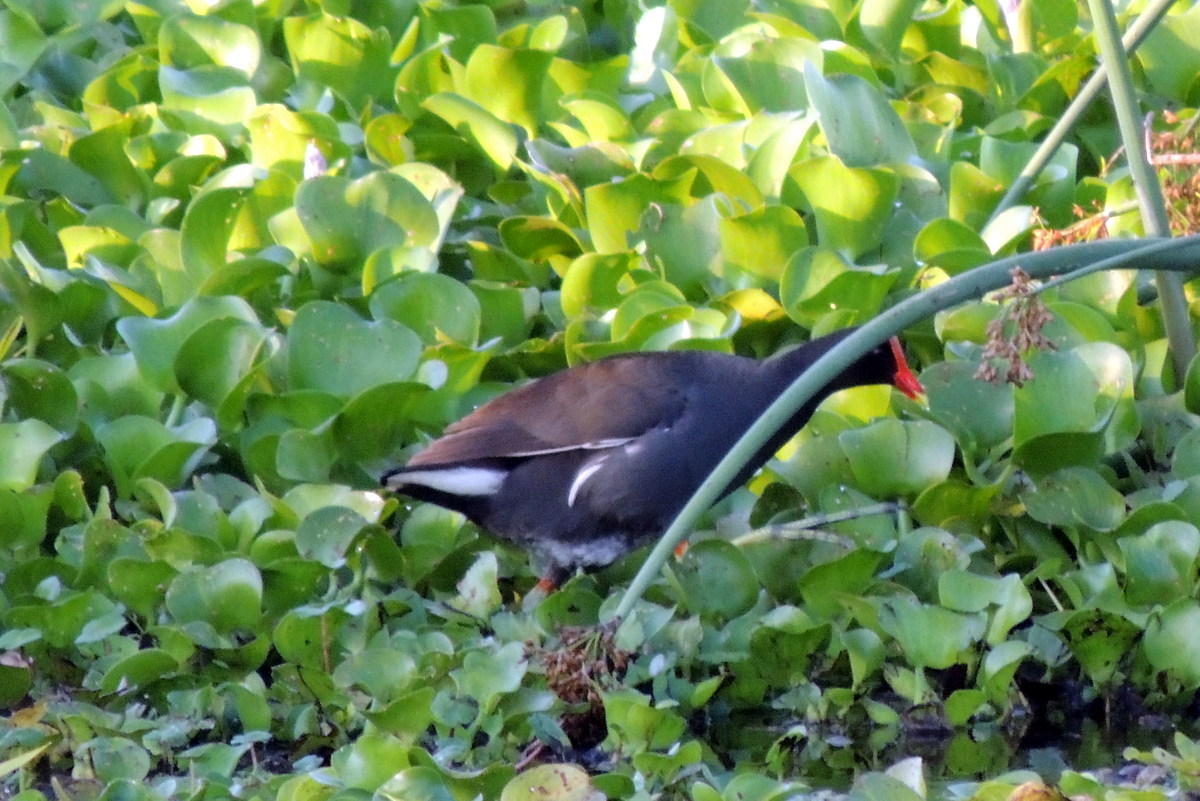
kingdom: Animalia
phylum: Chordata
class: Aves
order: Gruiformes
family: Rallidae
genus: Gallinula
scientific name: Gallinula chloropus
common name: Common moorhen
